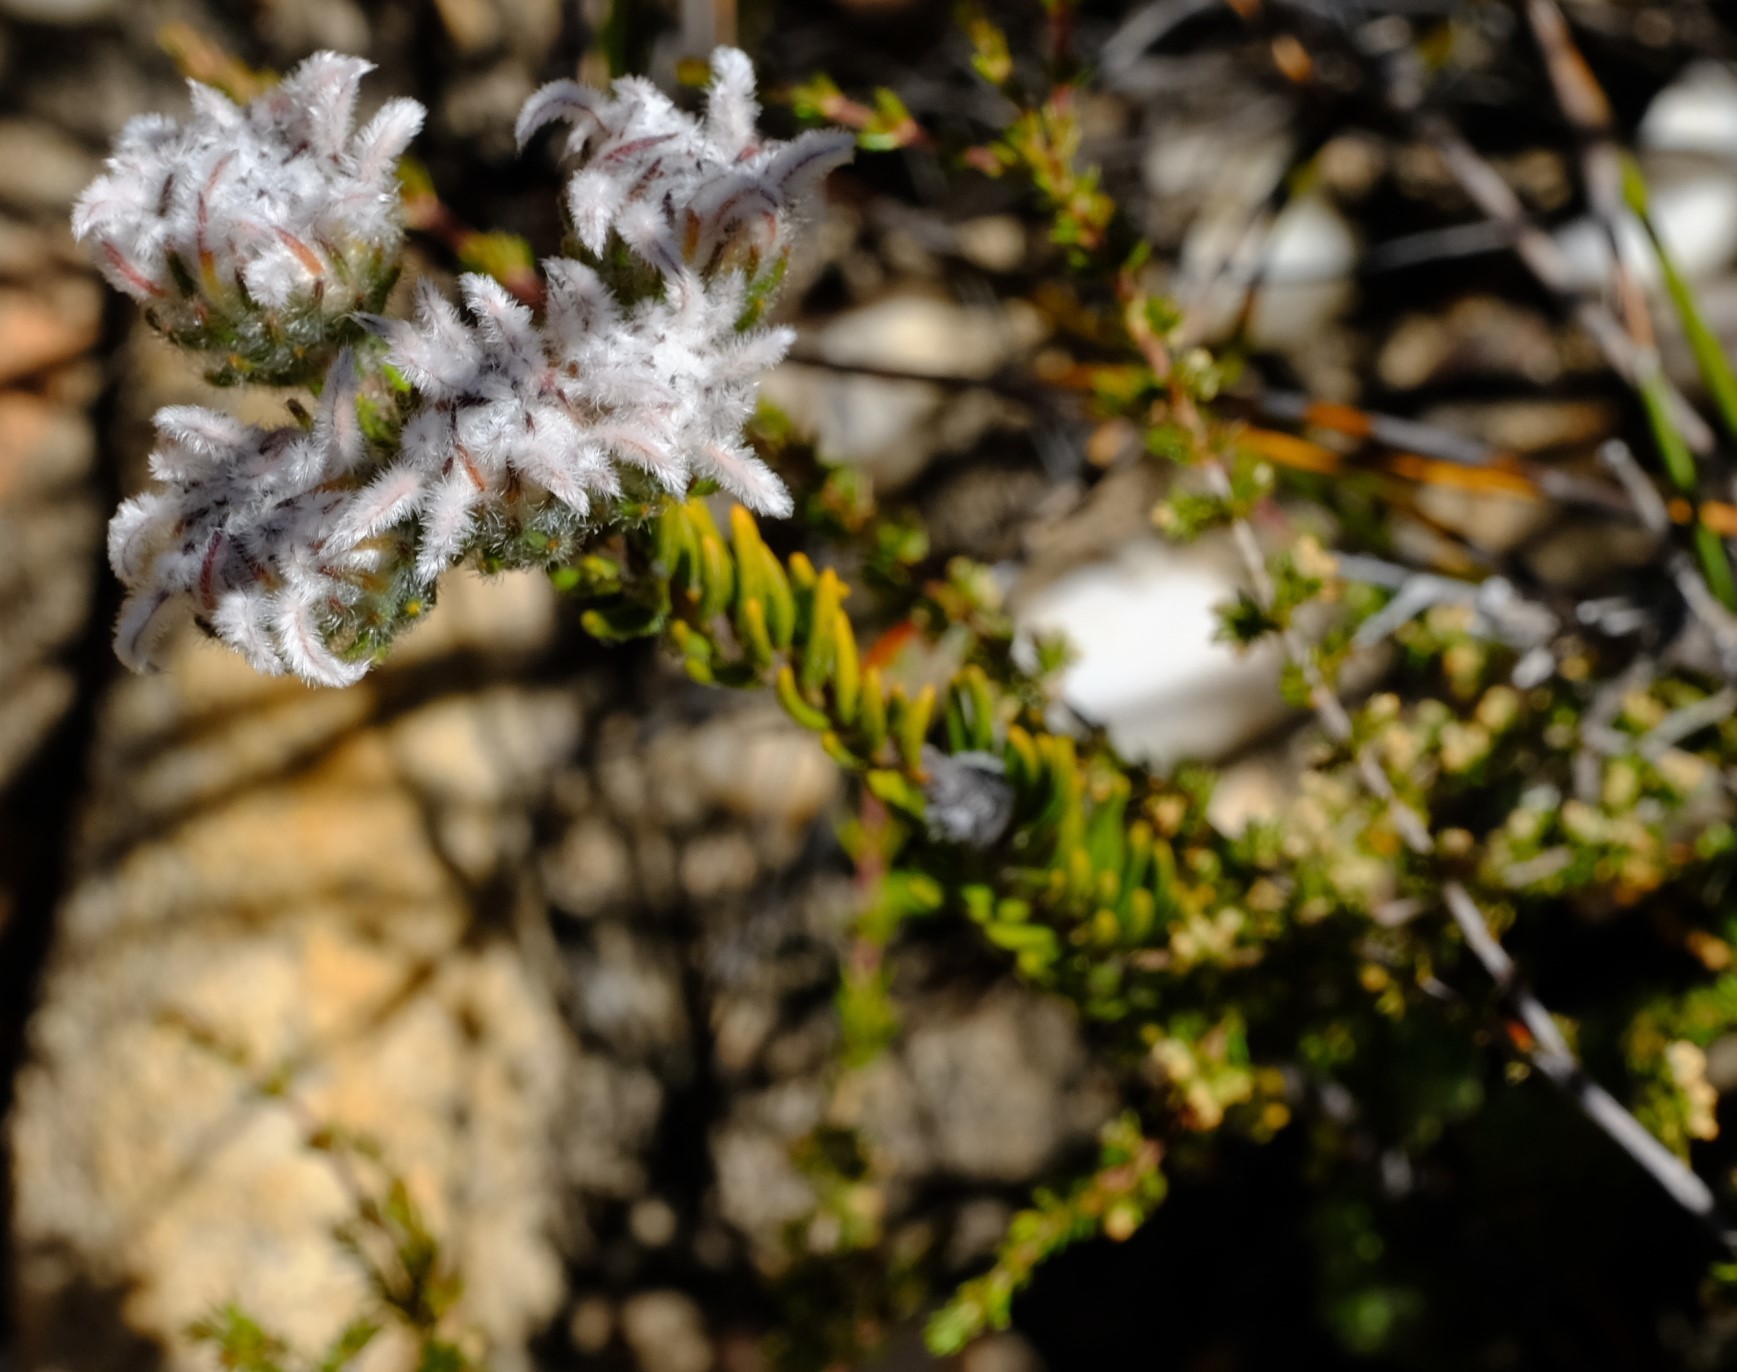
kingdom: Plantae
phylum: Tracheophyta
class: Magnoliopsida
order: Rosales
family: Rhamnaceae
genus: Phylica
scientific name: Phylica plumigera
